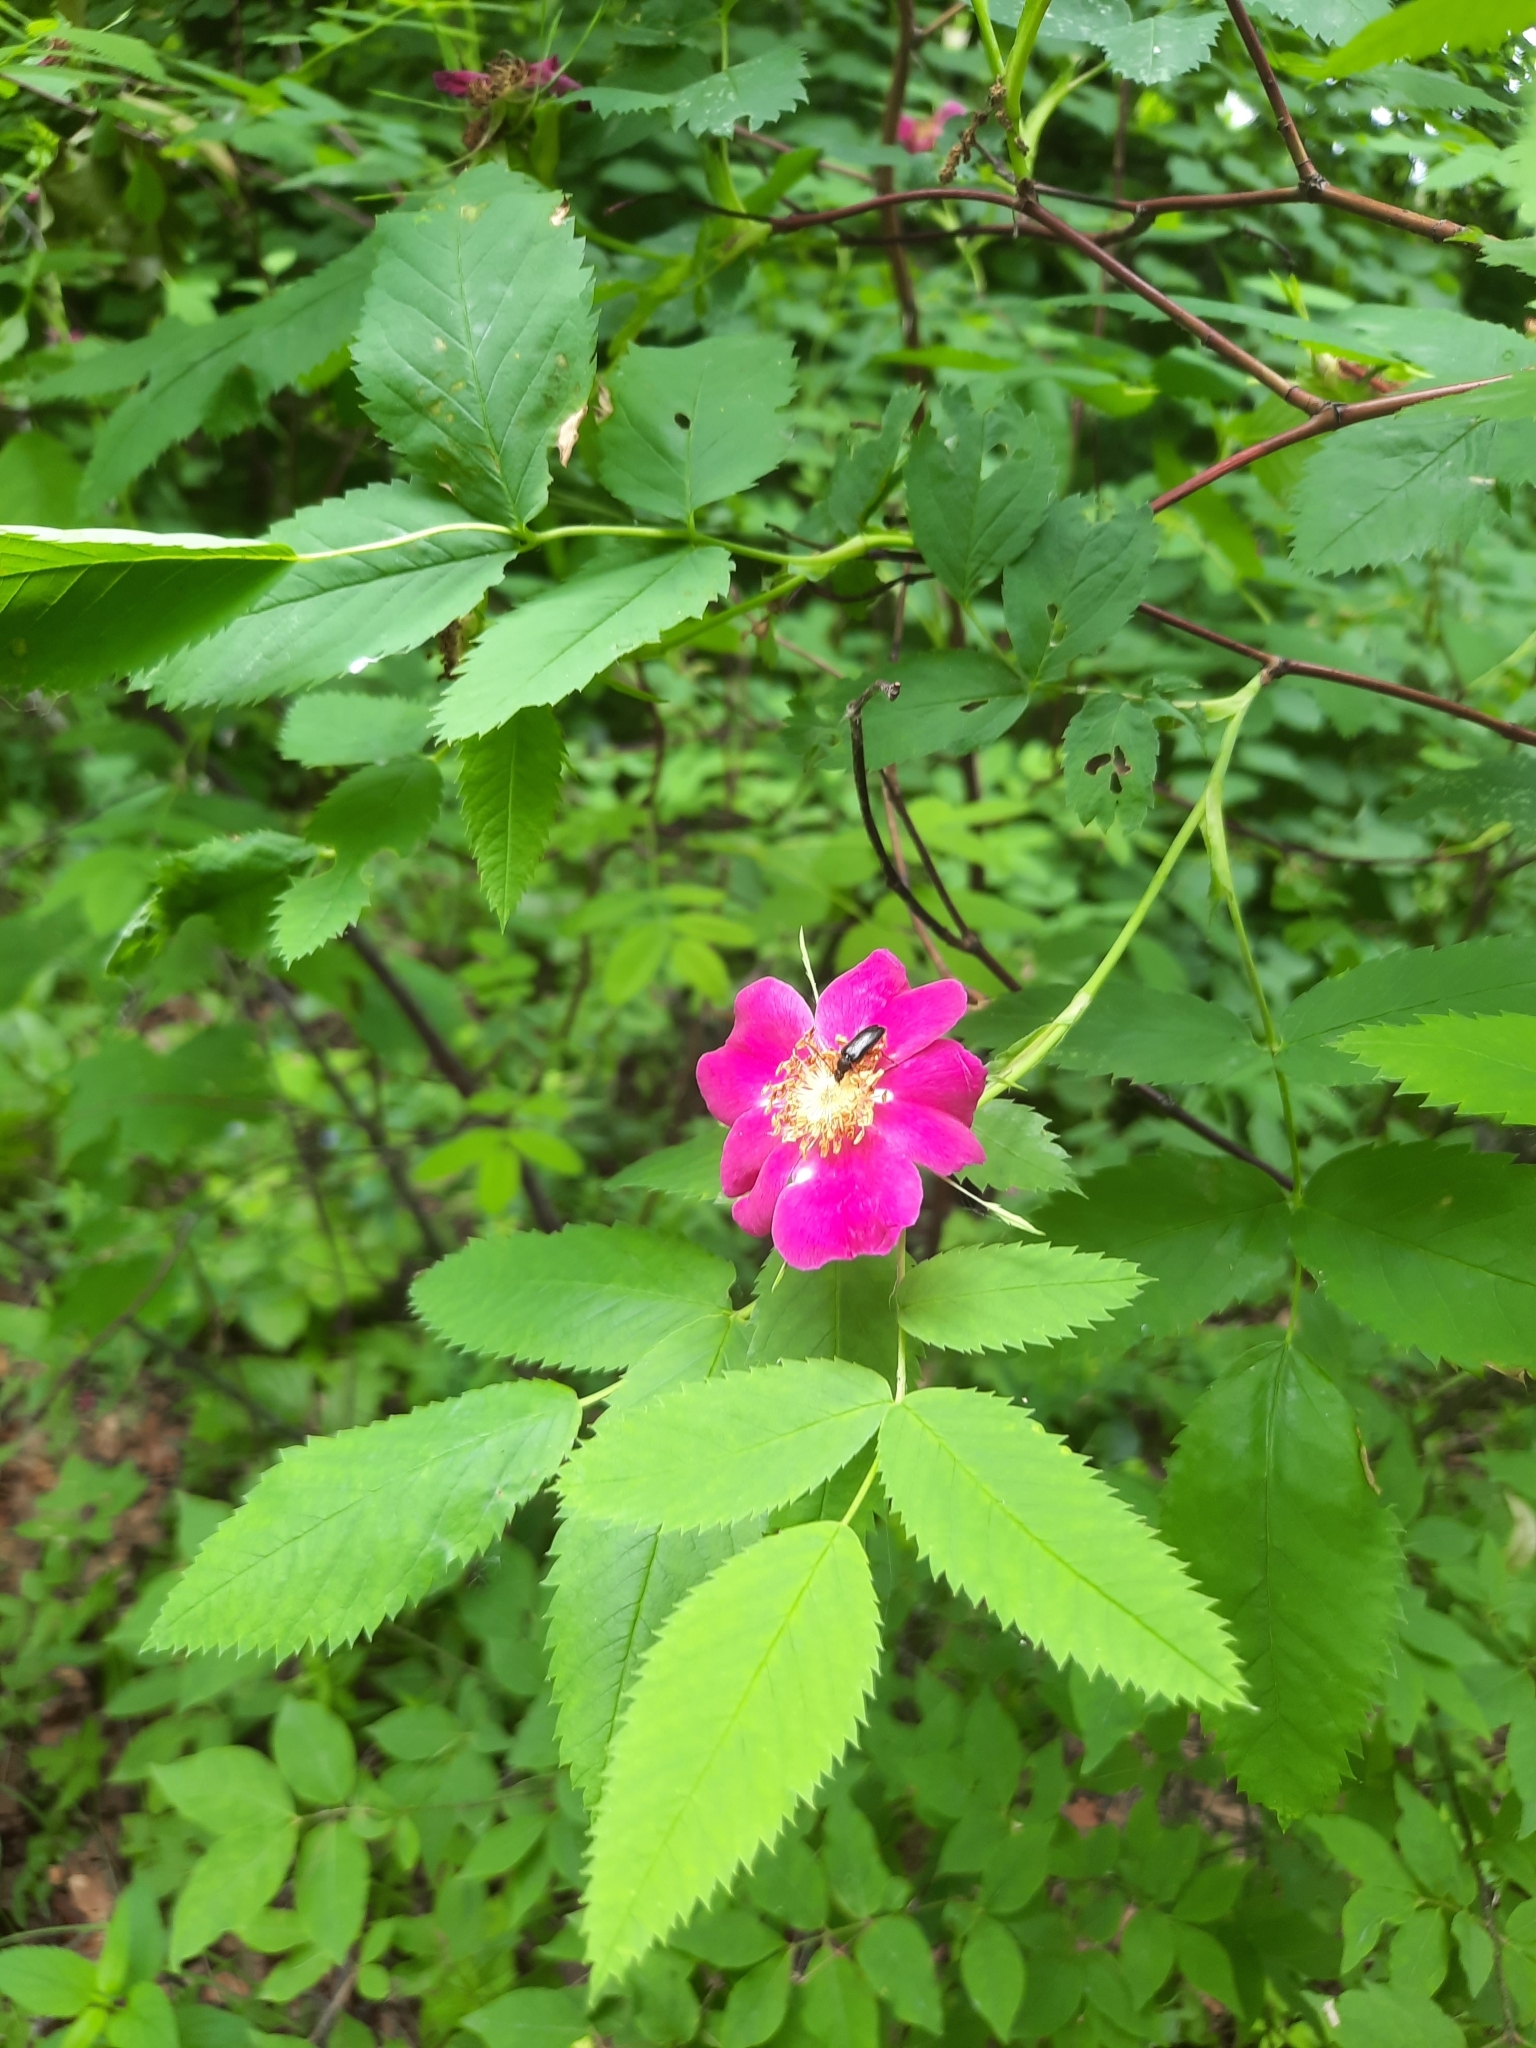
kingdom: Plantae
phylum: Tracheophyta
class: Magnoliopsida
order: Rosales
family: Rosaceae
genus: Rosa
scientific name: Rosa majalis
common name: Cinnamon rose
